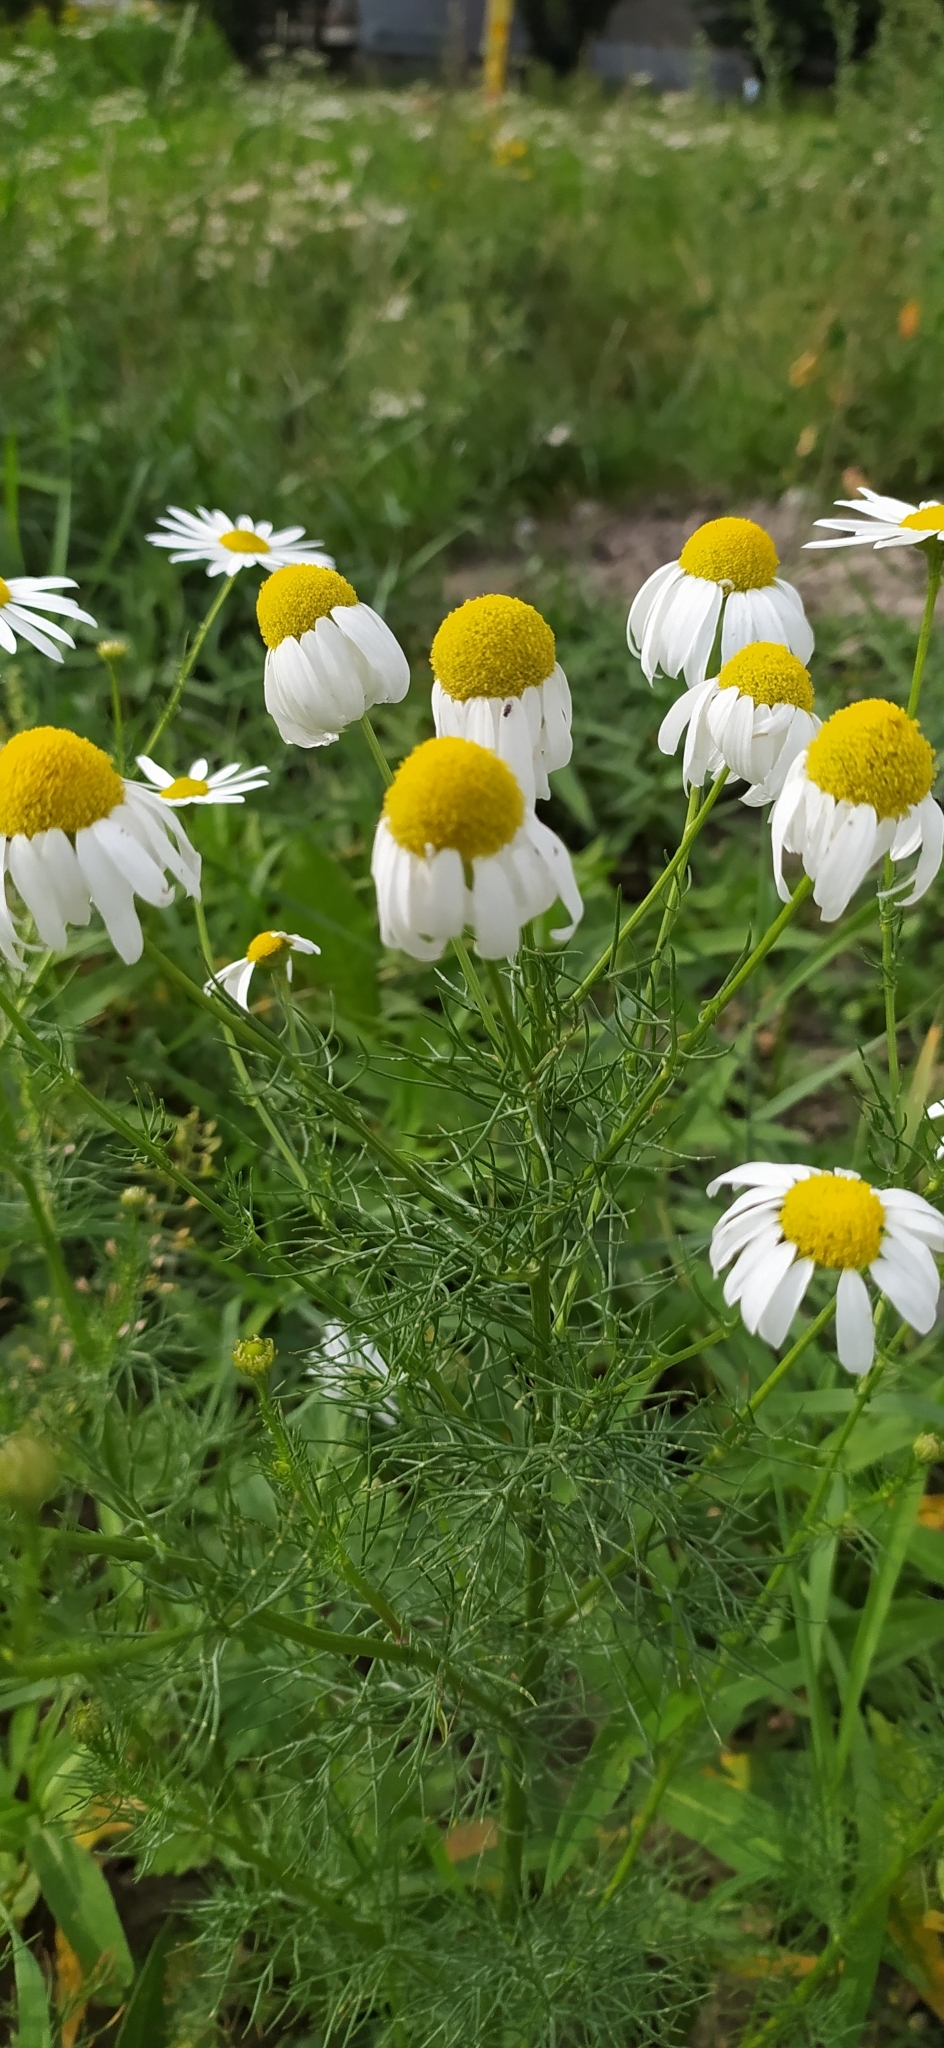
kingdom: Plantae
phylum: Tracheophyta
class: Magnoliopsida
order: Asterales
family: Asteraceae
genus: Tripleurospermum
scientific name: Tripleurospermum inodorum
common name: Scentless mayweed
